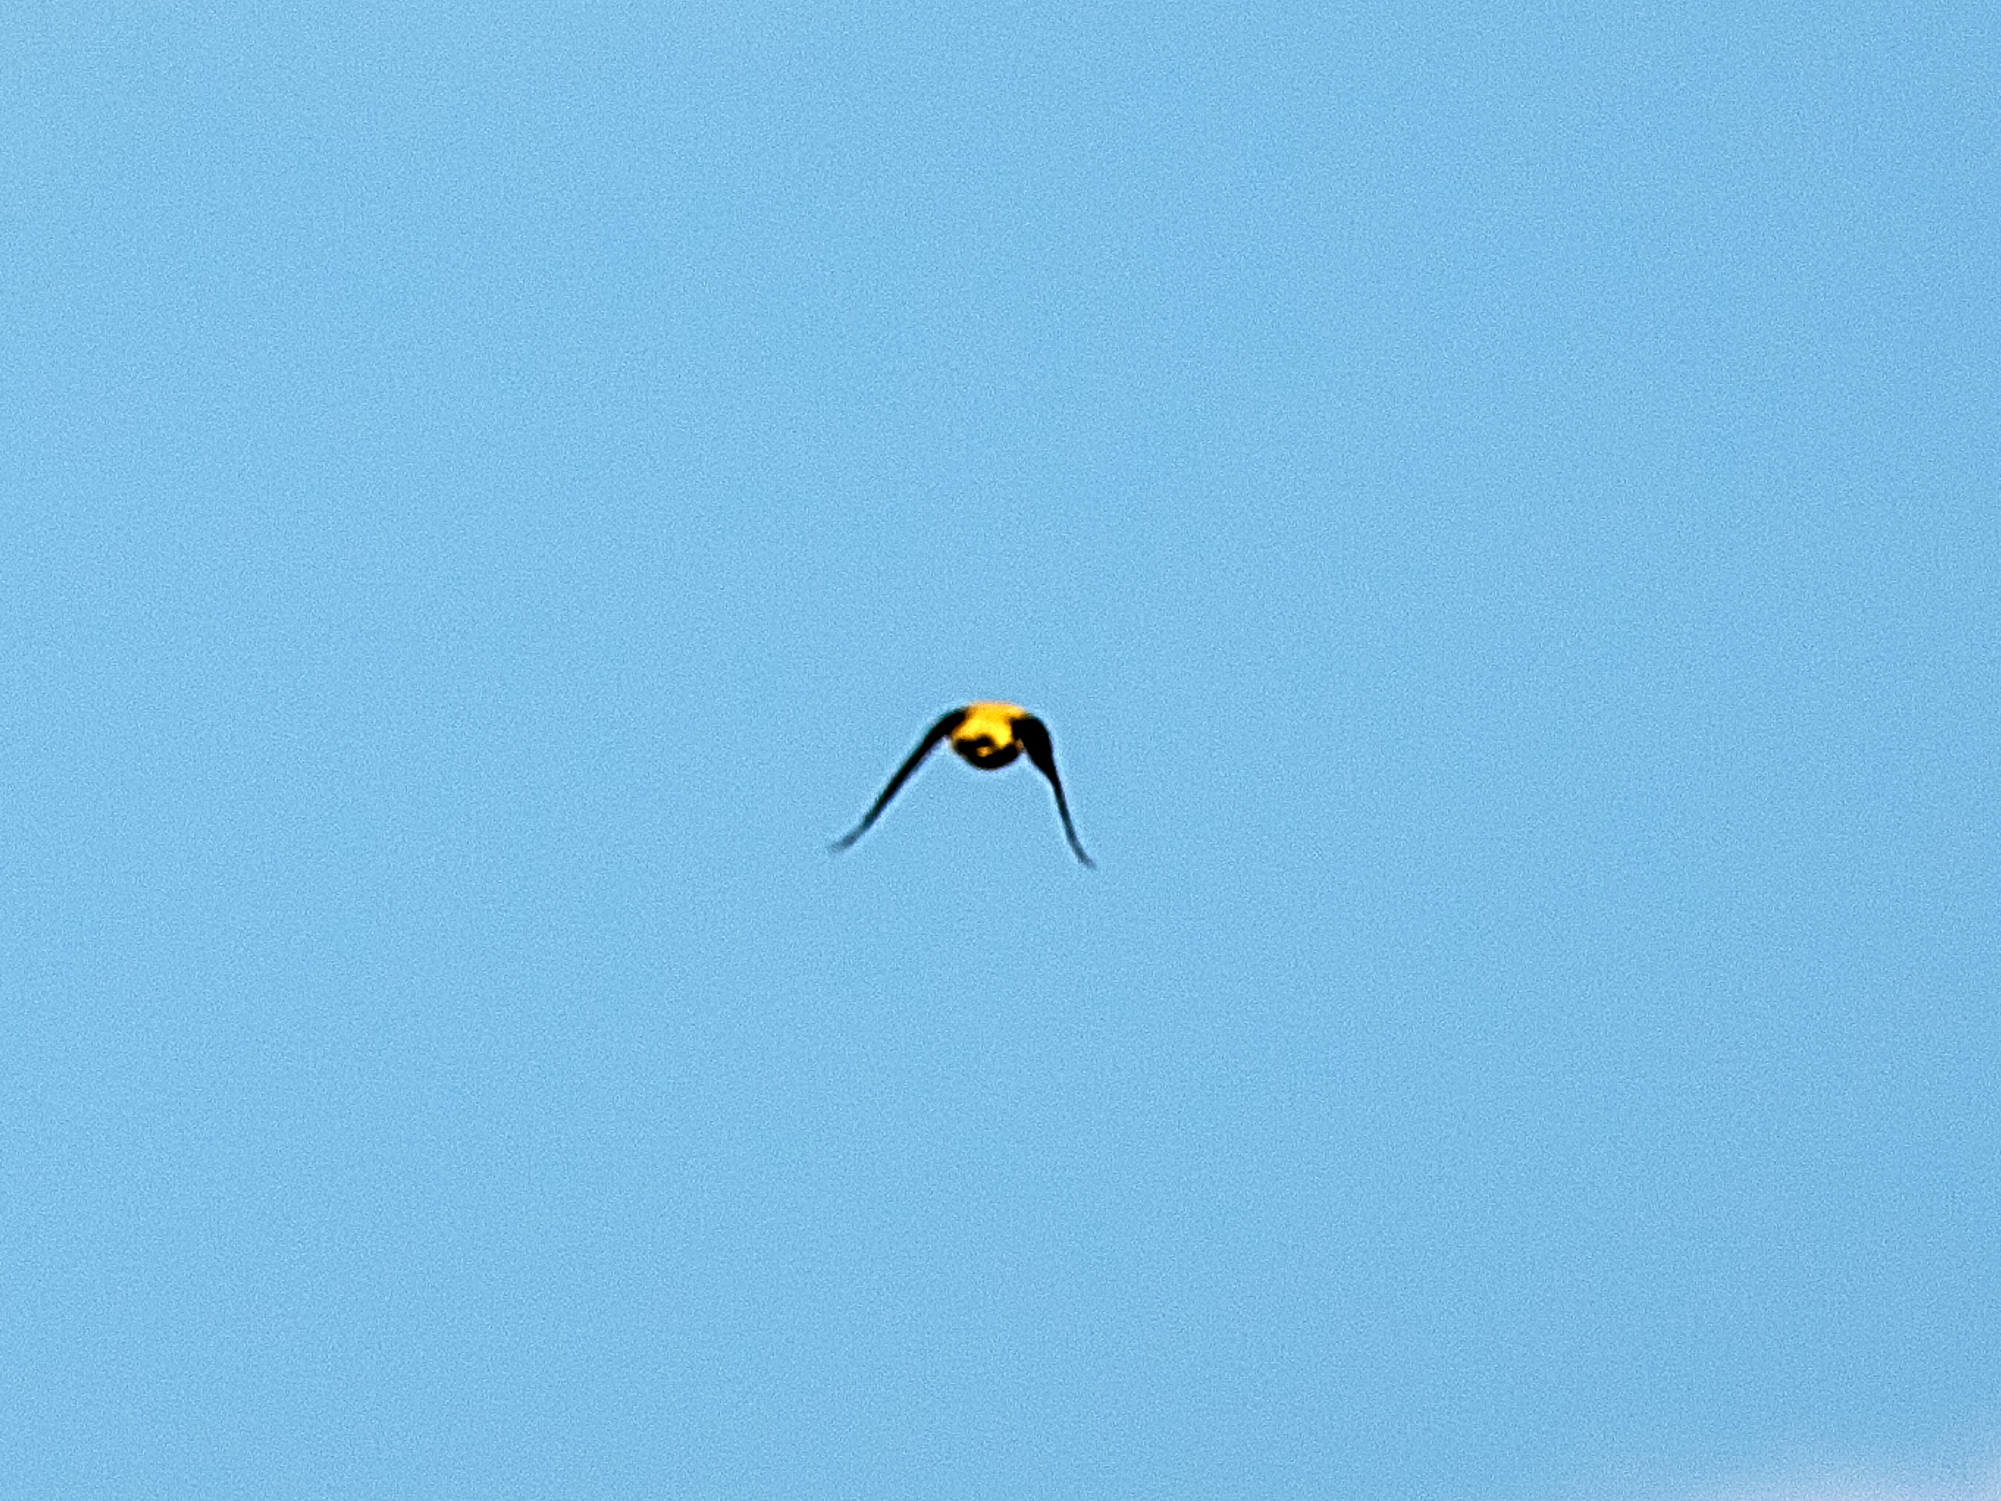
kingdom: Animalia
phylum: Chordata
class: Aves
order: Passeriformes
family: Oriolidae
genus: Oriolus
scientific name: Oriolus oriolus
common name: Eurasian golden oriole
